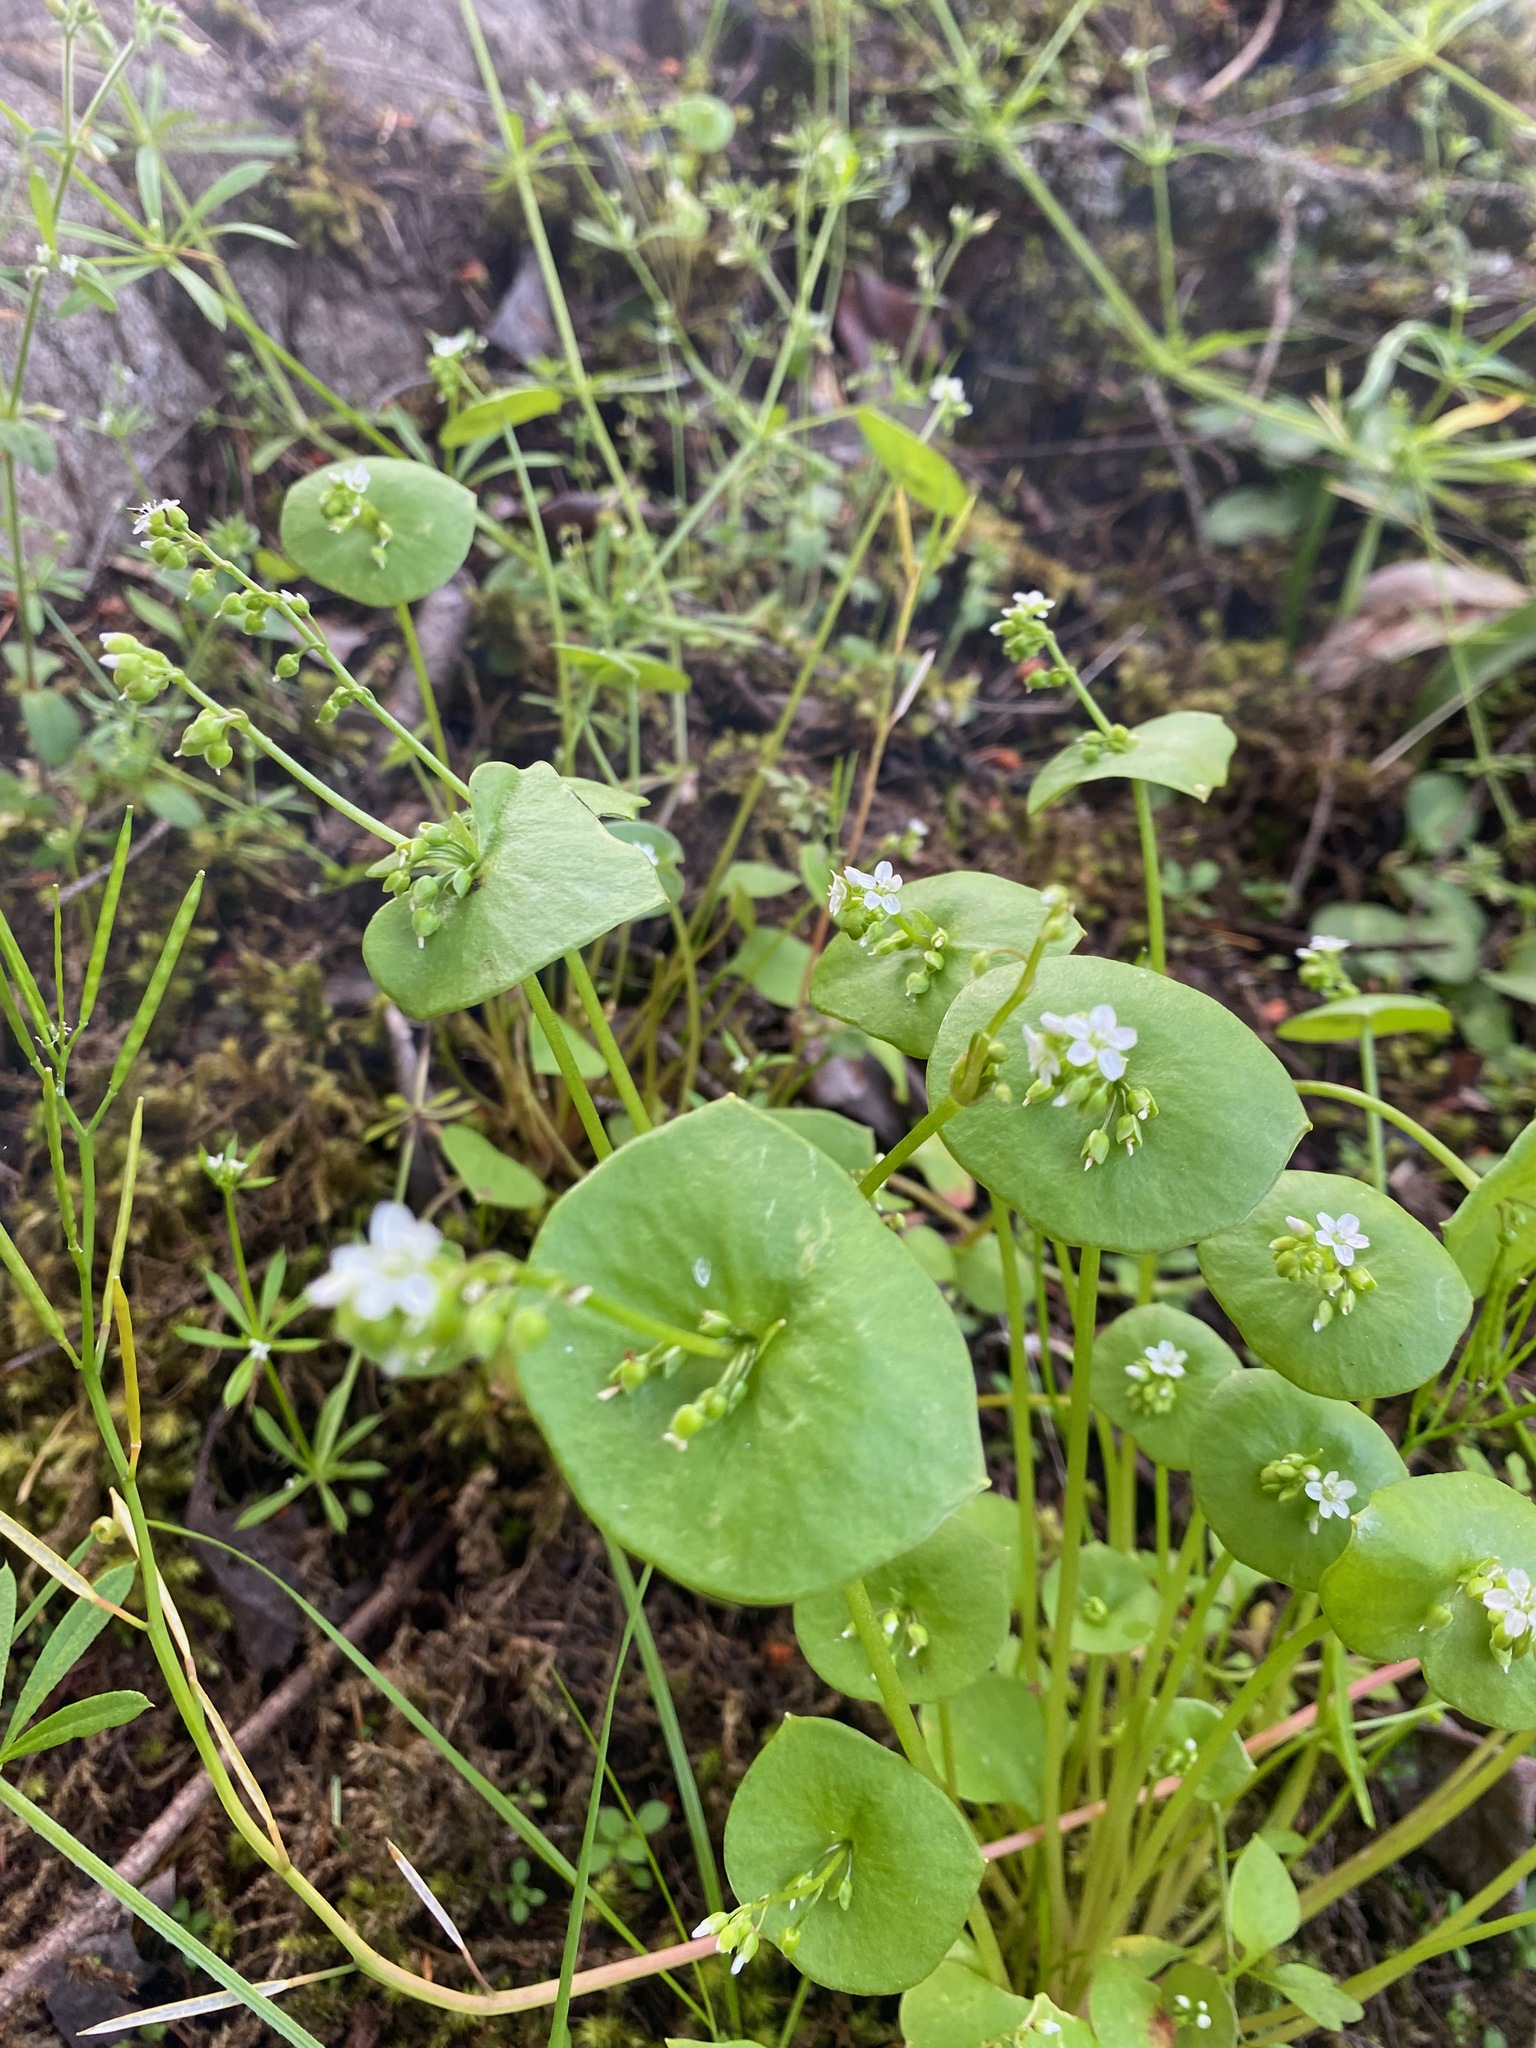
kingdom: Plantae
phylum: Tracheophyta
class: Magnoliopsida
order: Caryophyllales
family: Montiaceae
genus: Claytonia
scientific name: Claytonia perfoliata
